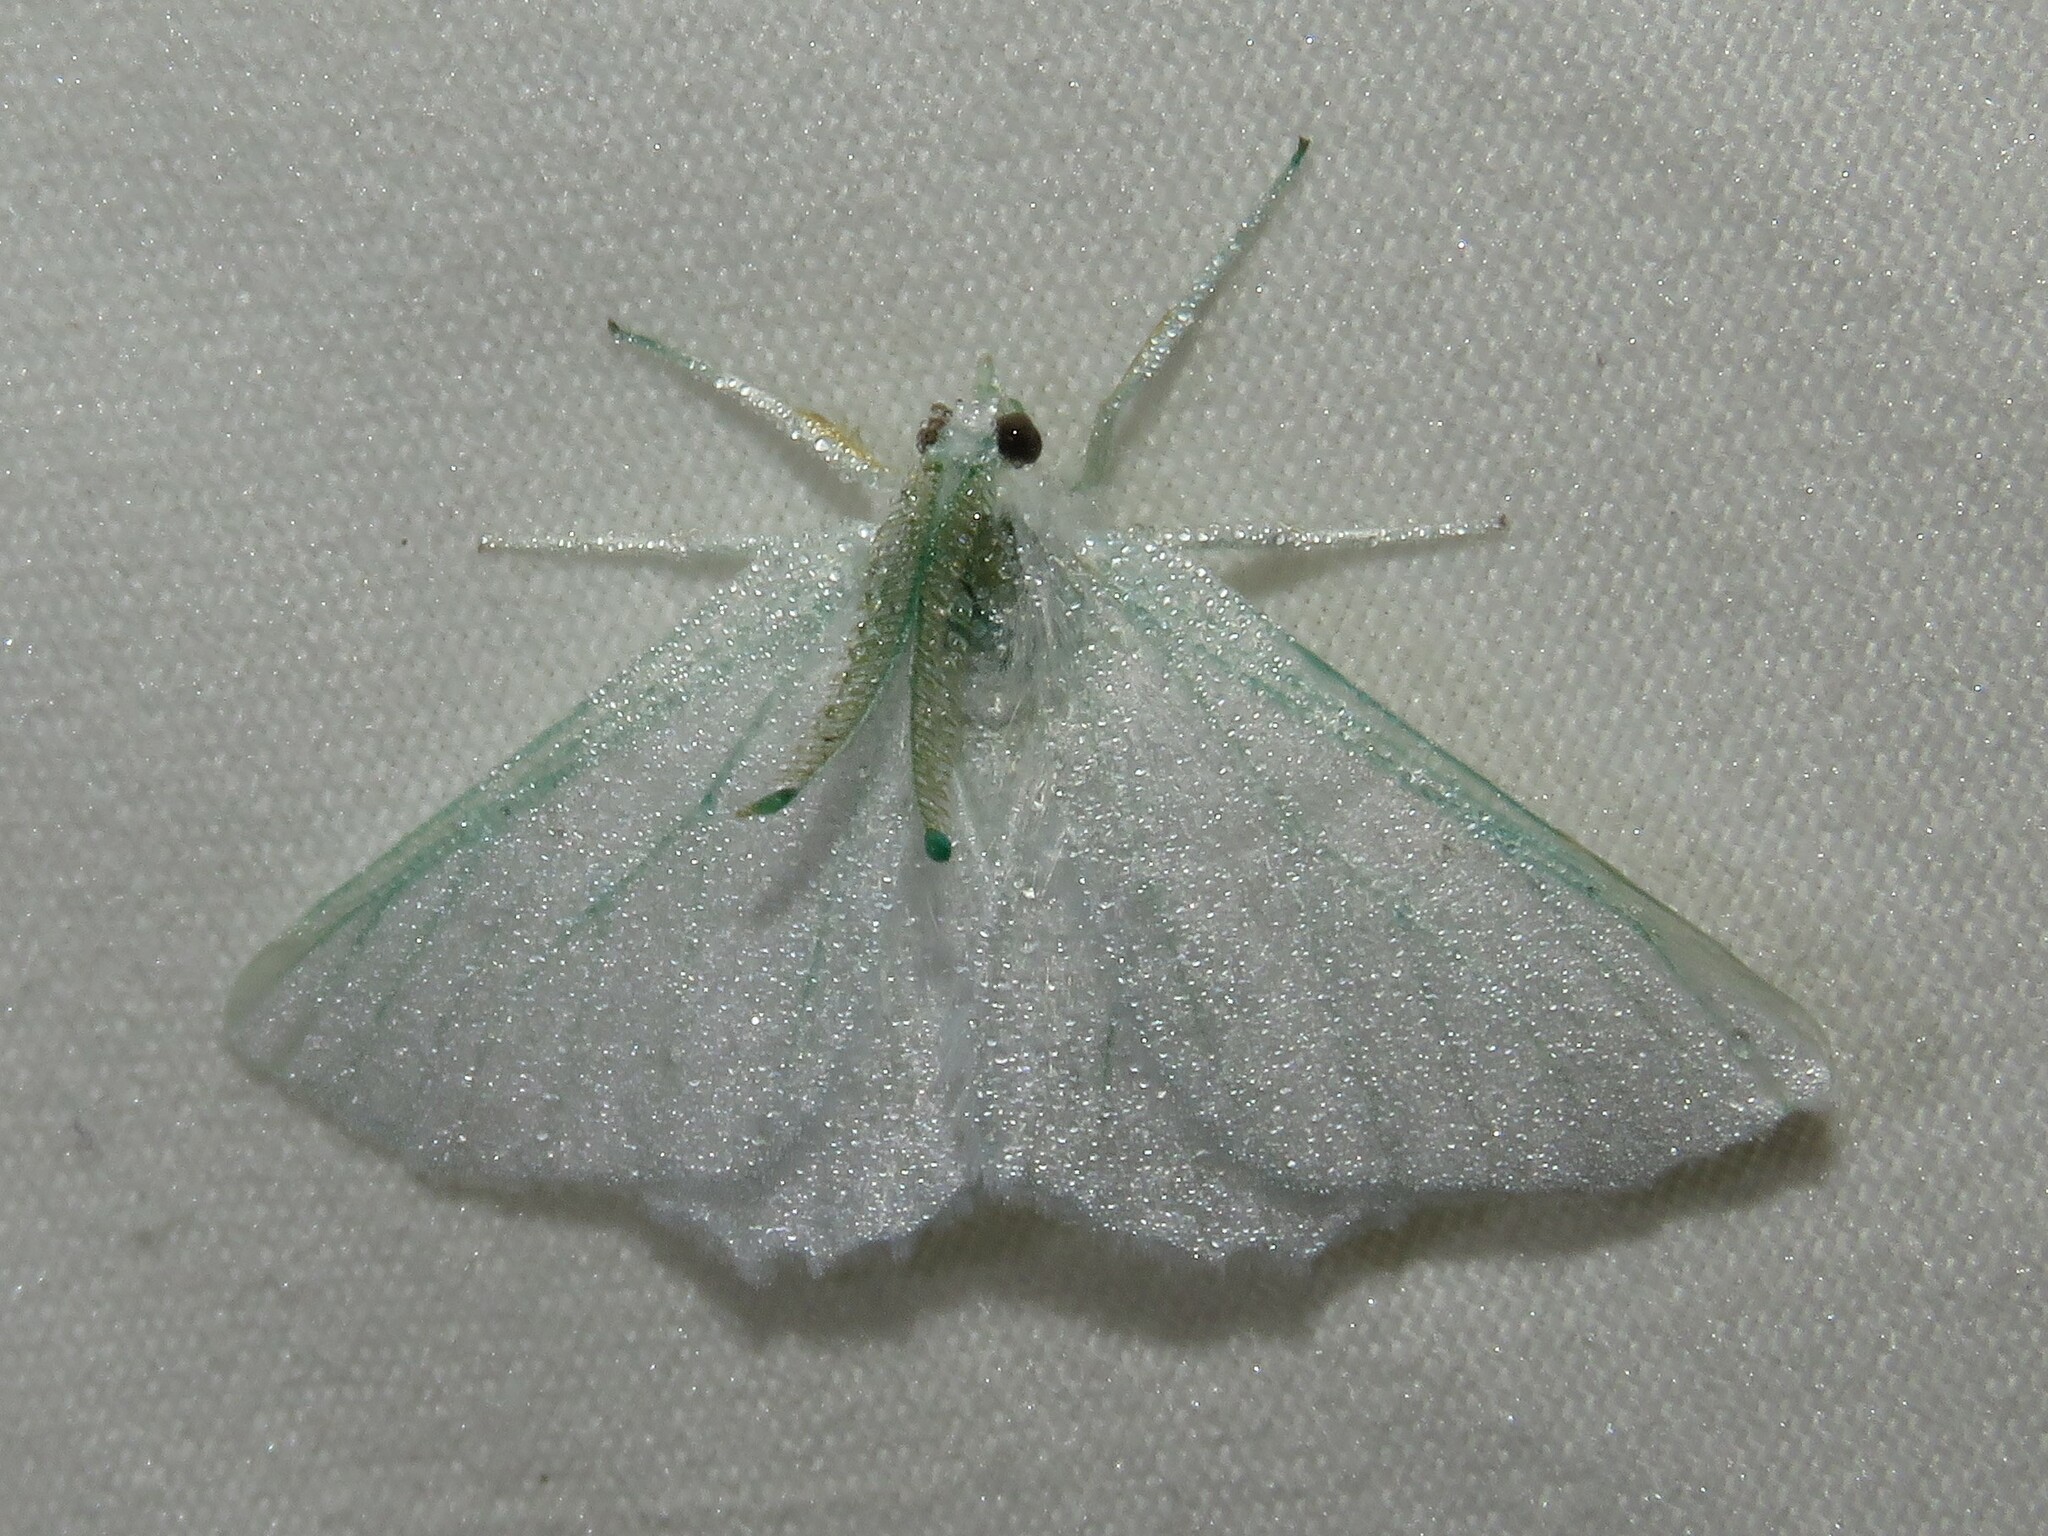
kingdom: Animalia
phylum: Arthropoda
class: Insecta
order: Lepidoptera
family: Geometridae
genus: Ennomos
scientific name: Ennomos subsignaria
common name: Elm spanworm
